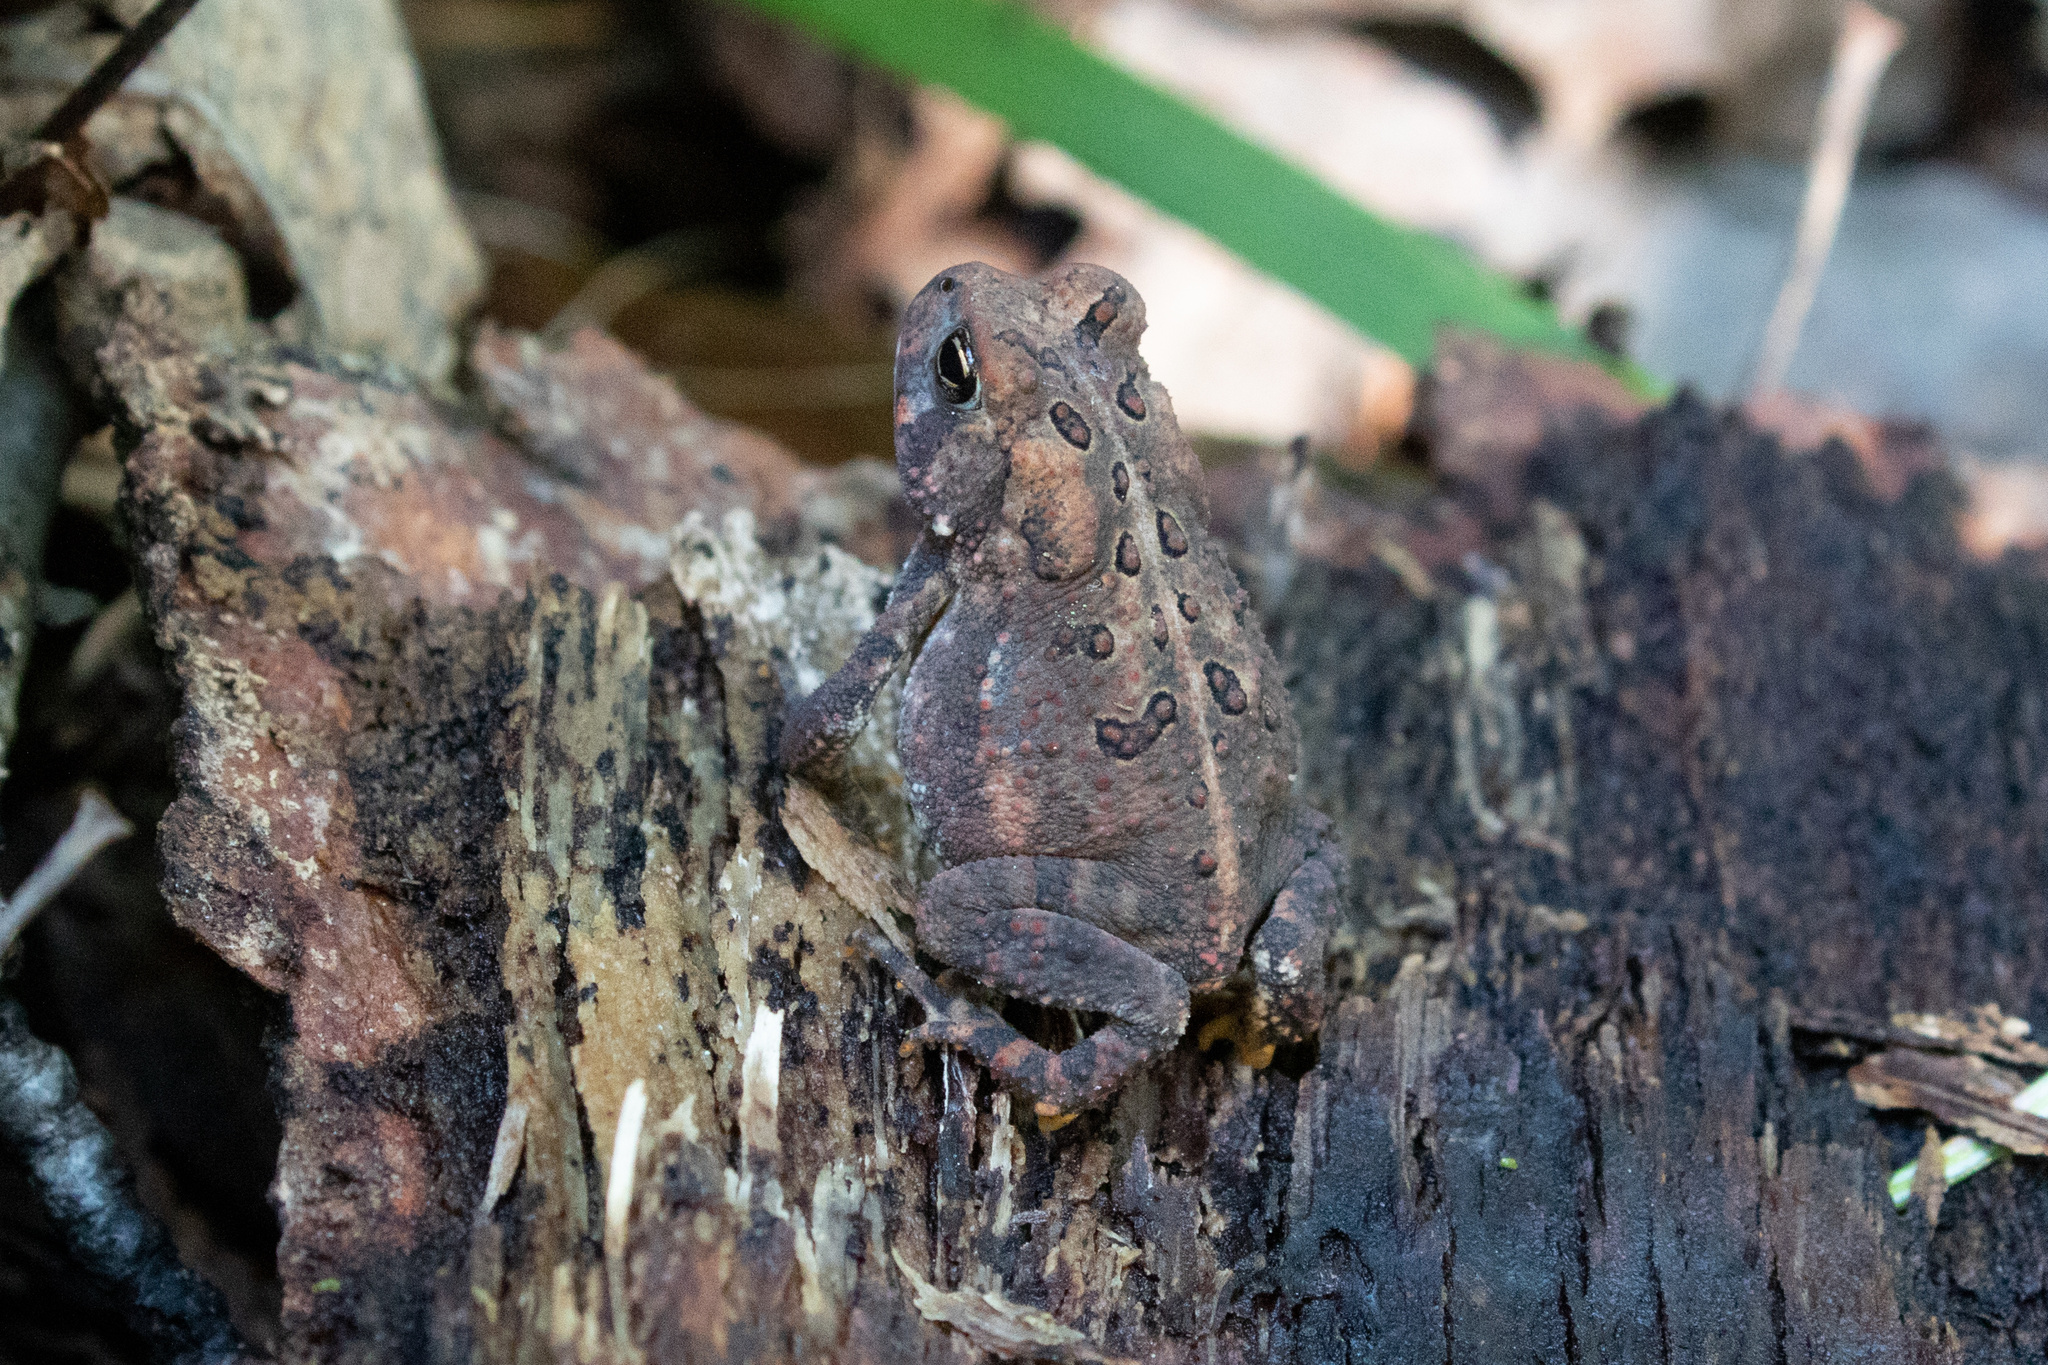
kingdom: Animalia
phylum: Chordata
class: Amphibia
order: Anura
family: Bufonidae
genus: Anaxyrus
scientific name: Anaxyrus americanus
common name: American toad
